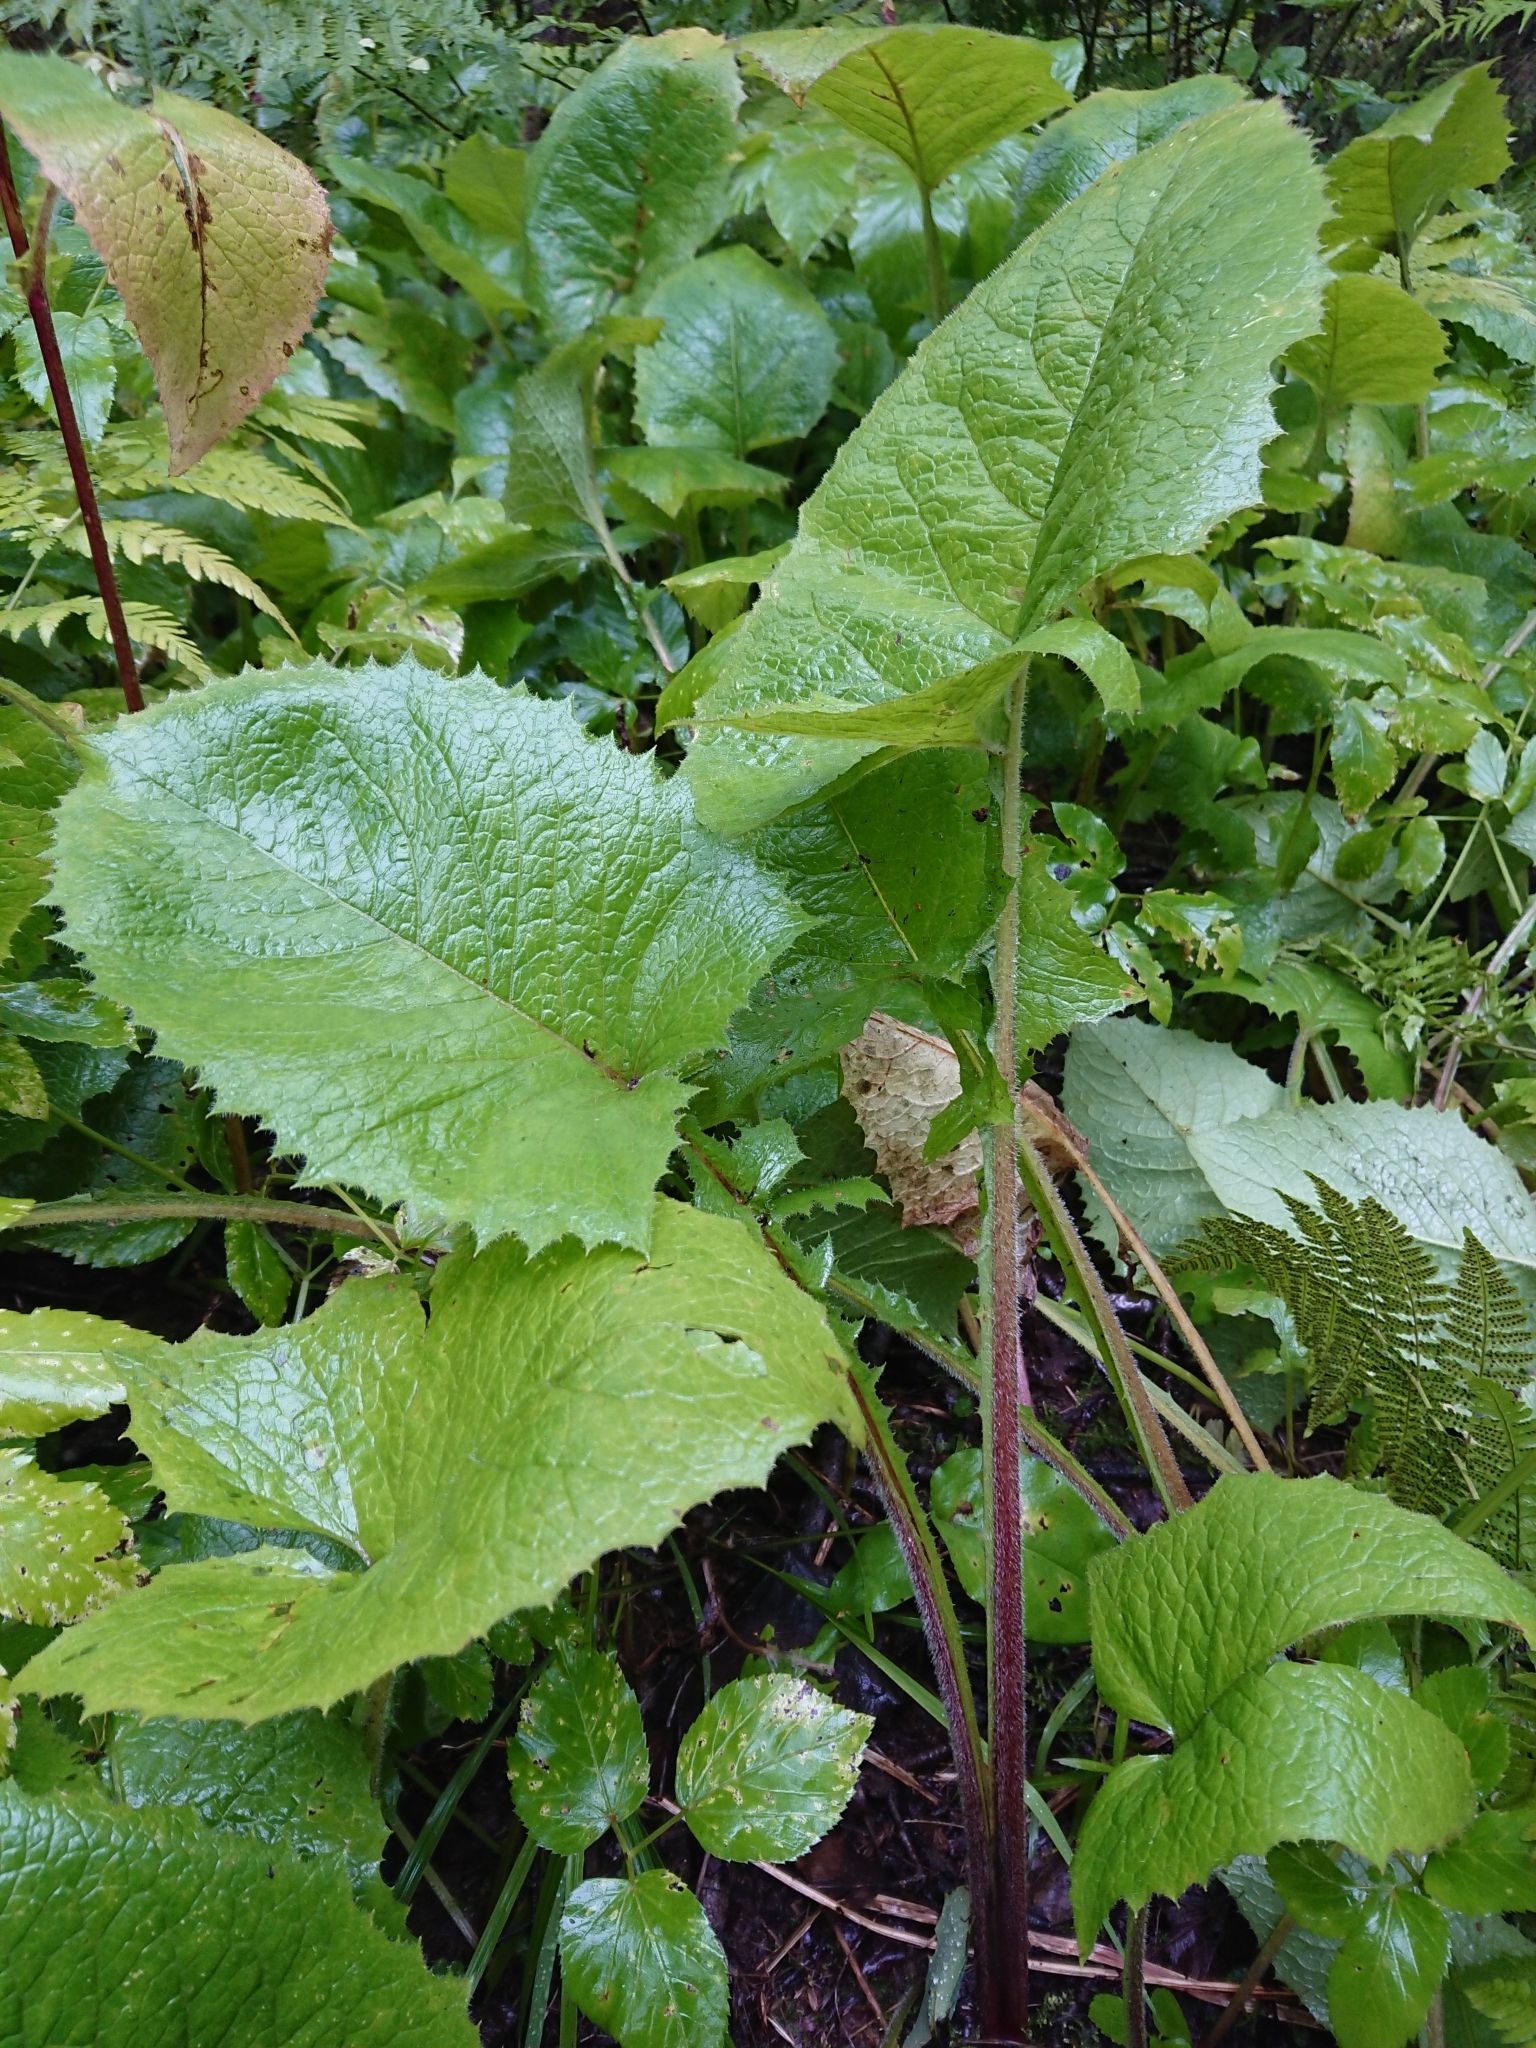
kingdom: Plantae
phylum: Tracheophyta
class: Magnoliopsida
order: Asterales
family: Asteraceae
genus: Lactuca
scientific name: Lactuca macrophylla
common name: Common blue-sow-thistle
